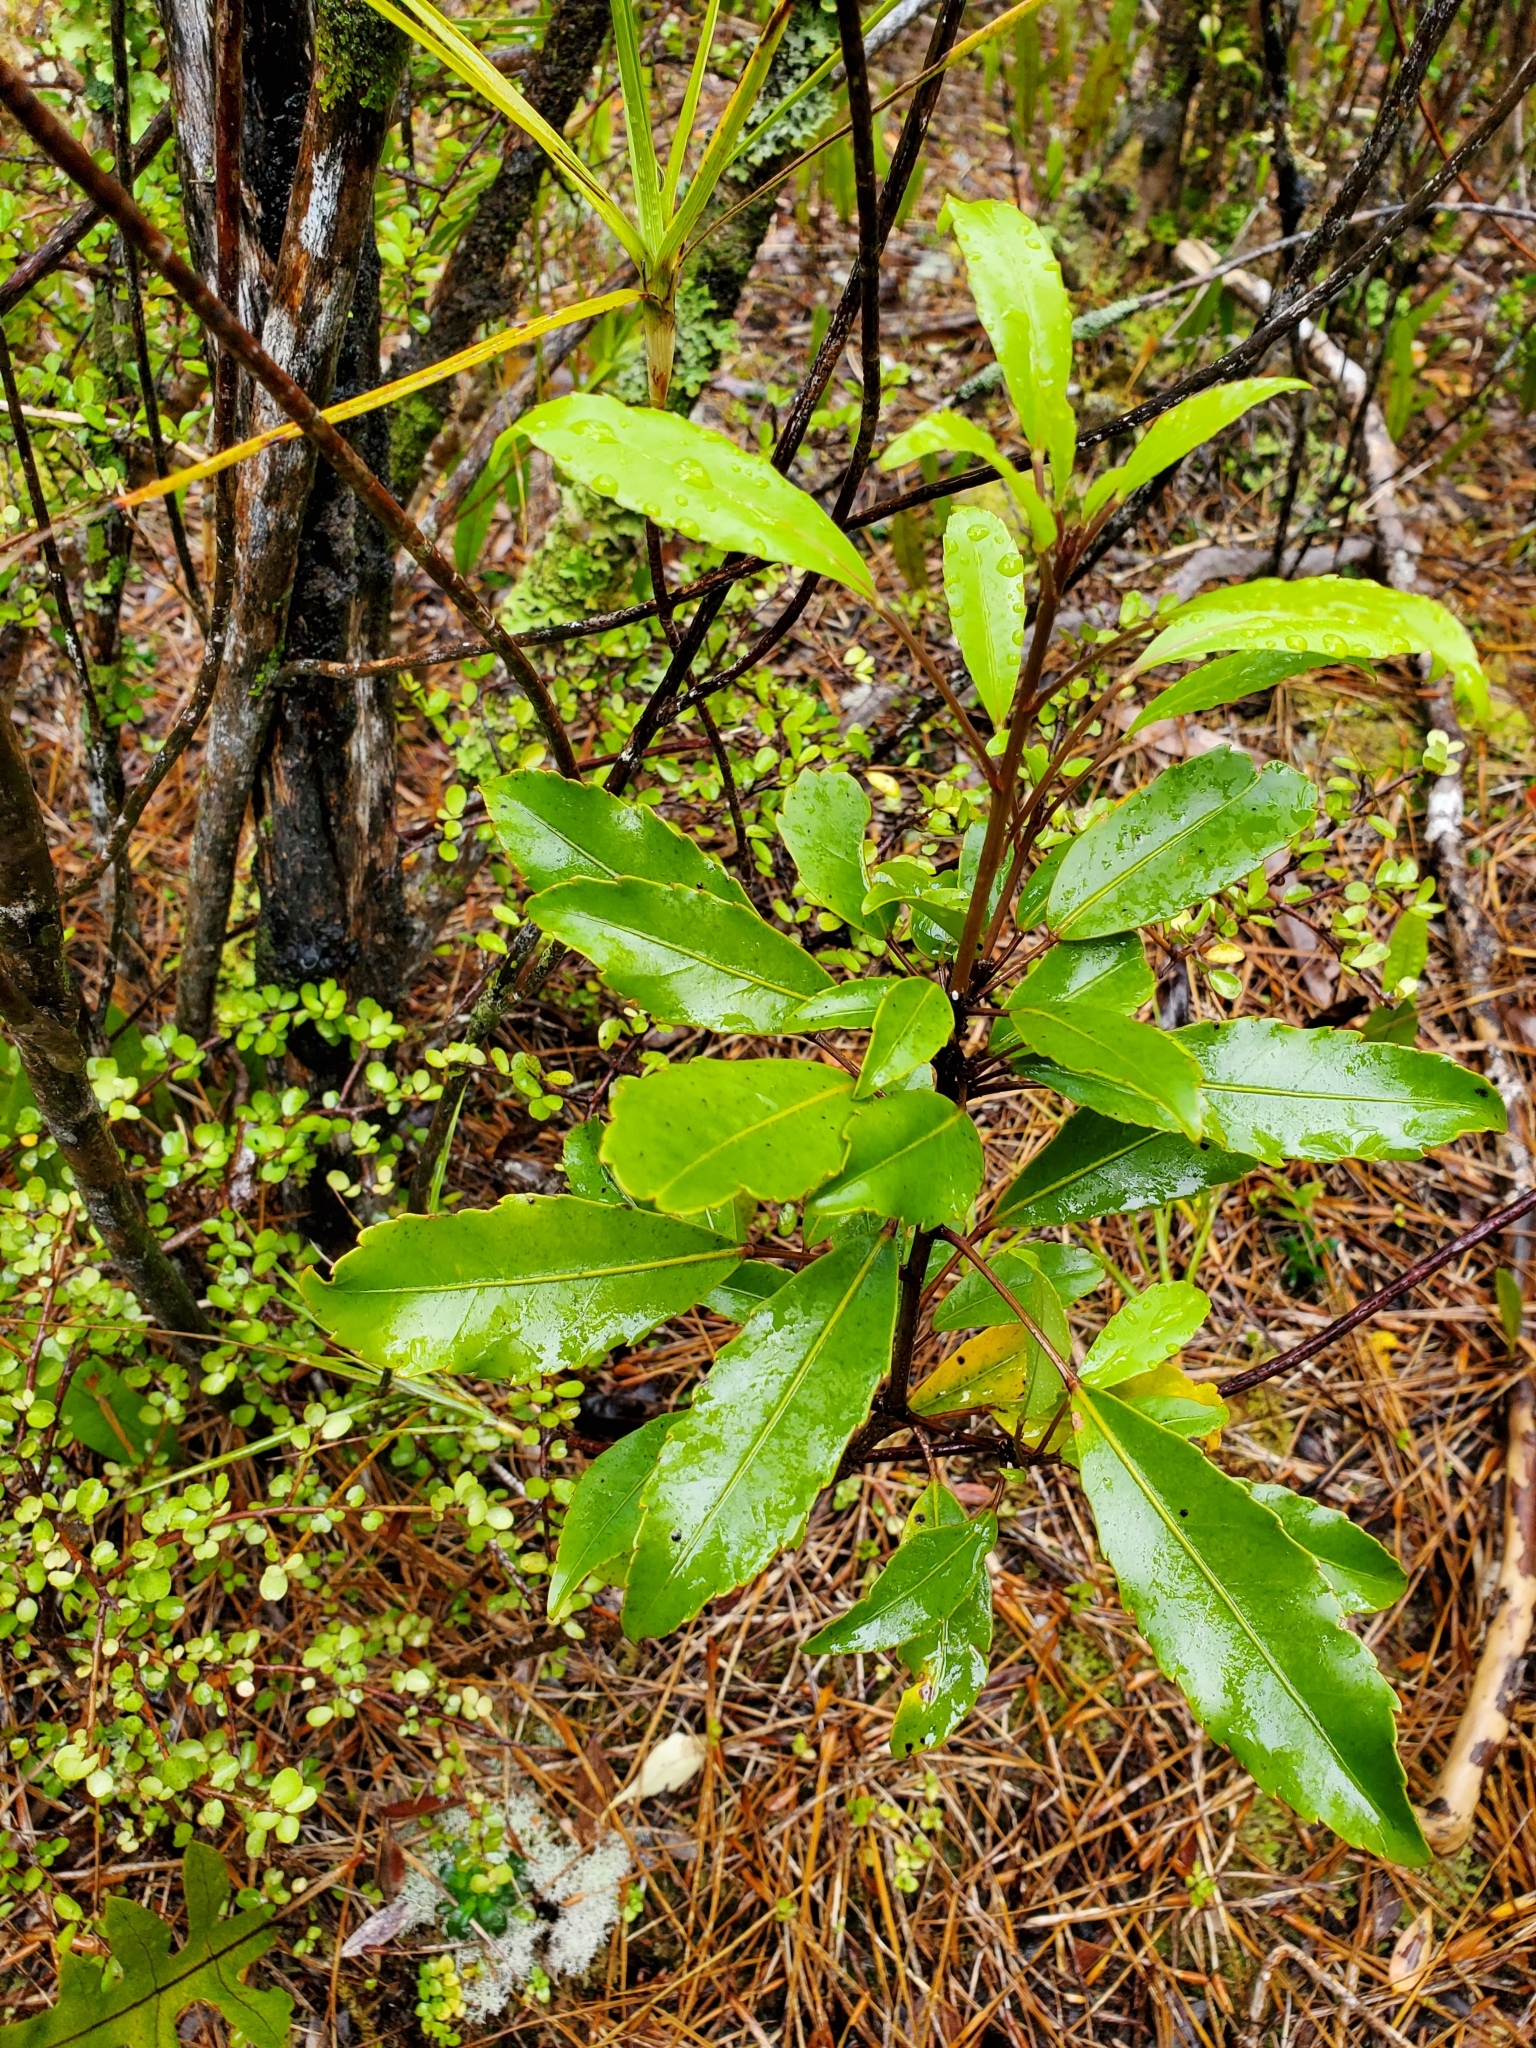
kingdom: Plantae
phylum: Tracheophyta
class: Magnoliopsida
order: Apiales
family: Araliaceae
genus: Raukaua
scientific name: Raukaua simplex
